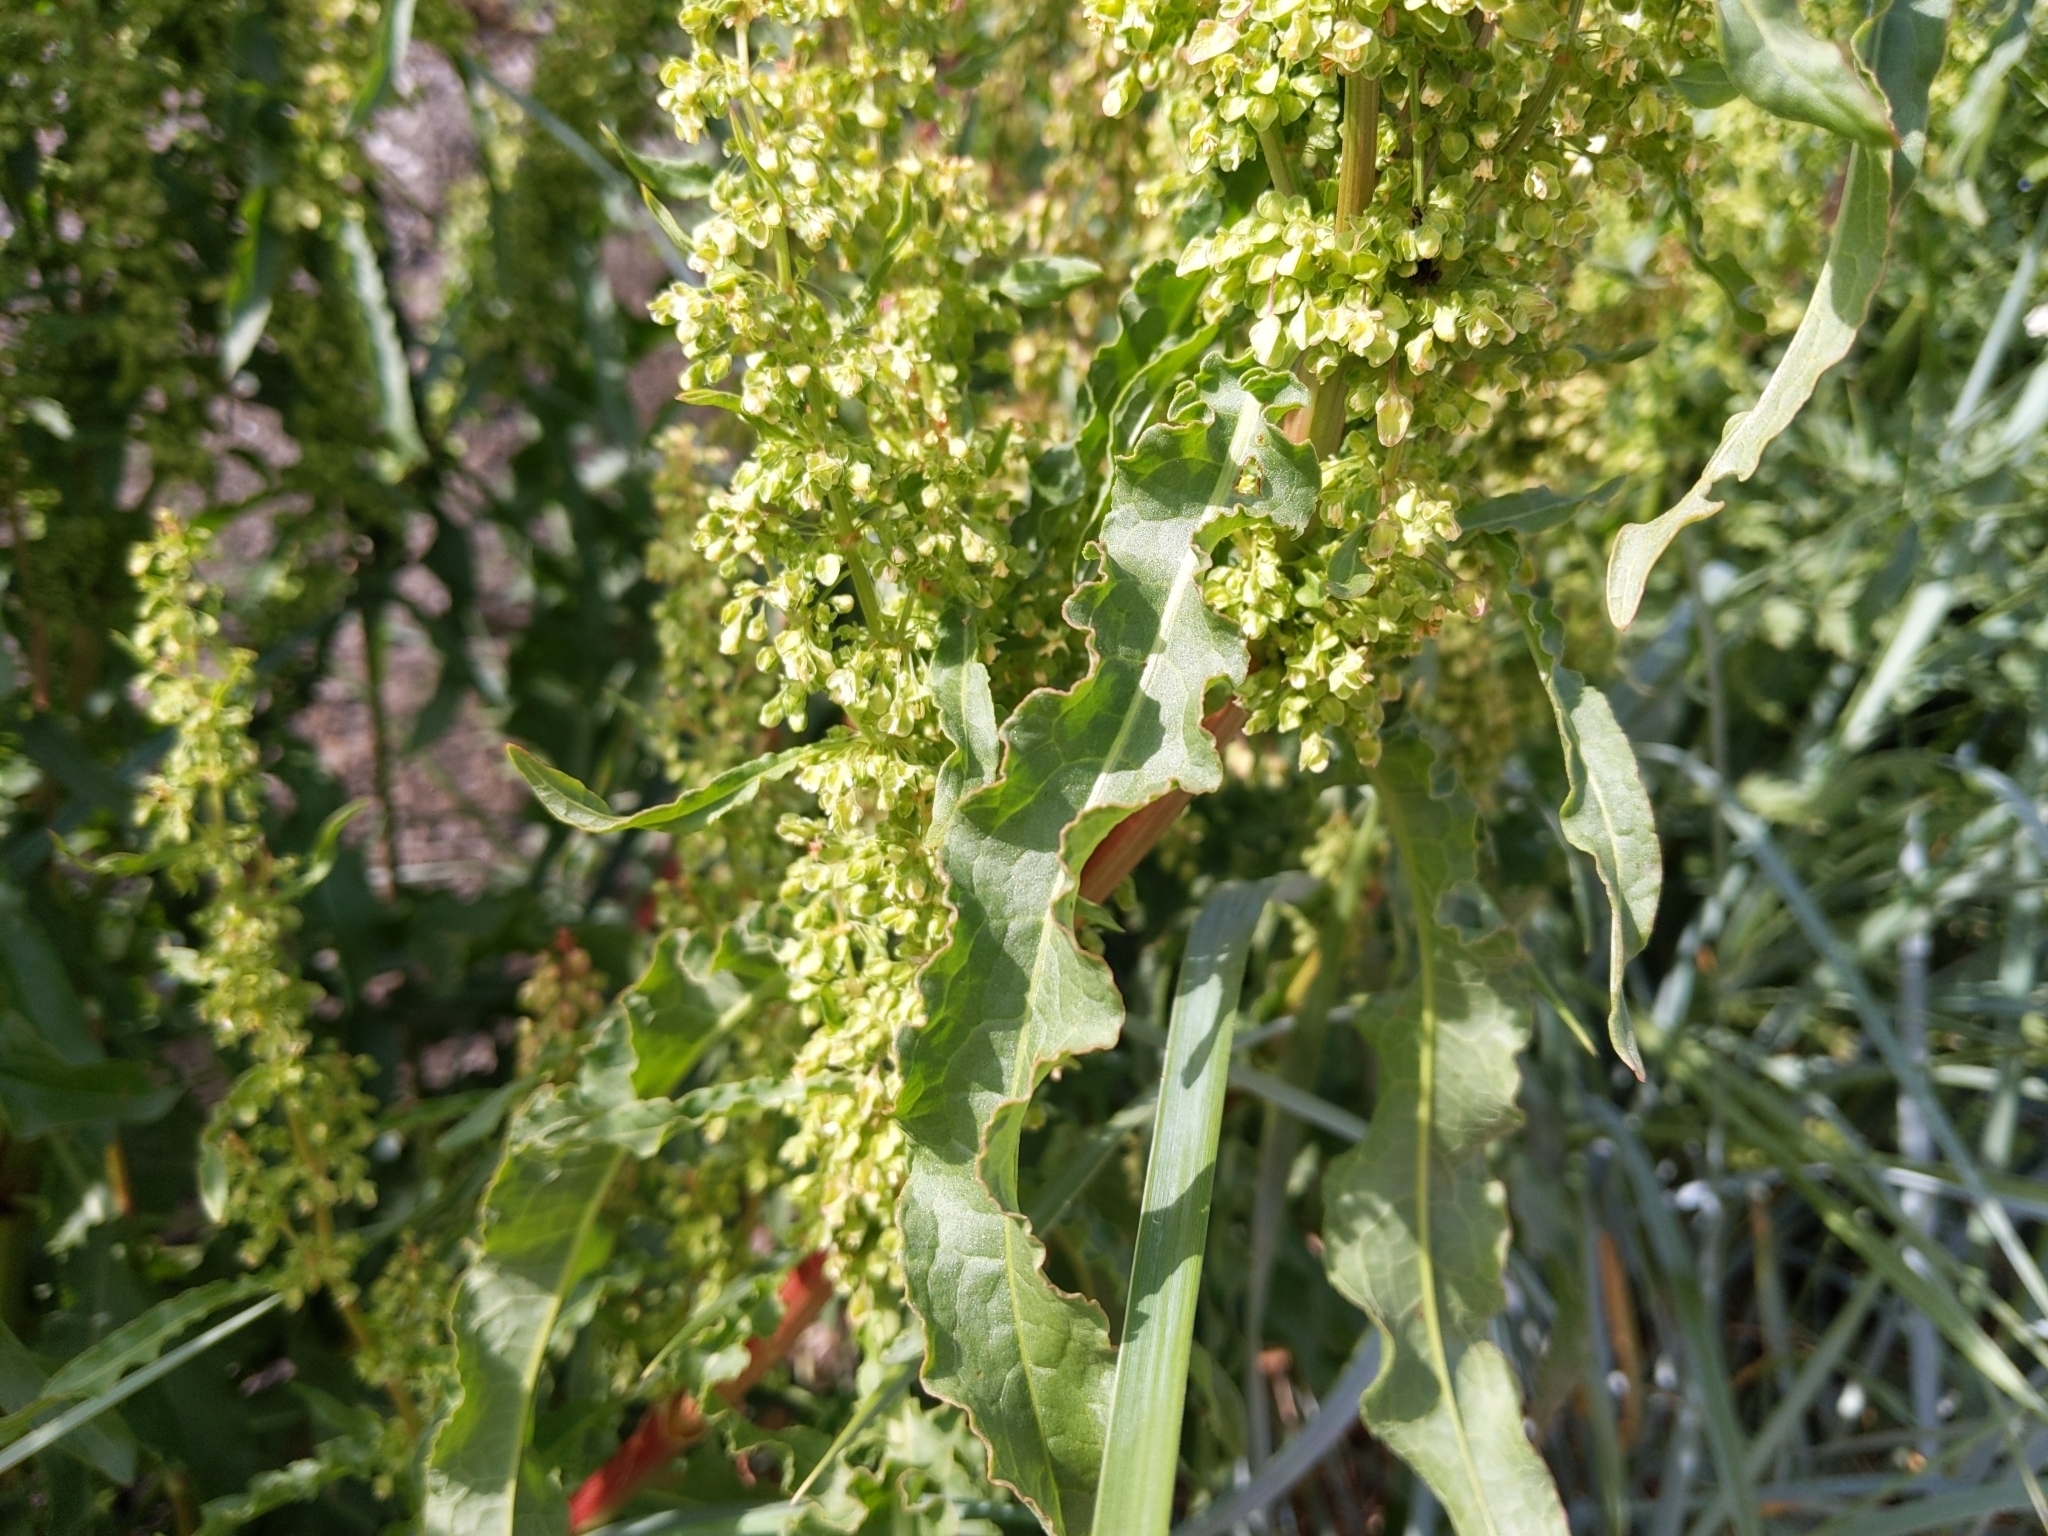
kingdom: Plantae
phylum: Tracheophyta
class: Magnoliopsida
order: Caryophyllales
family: Polygonaceae
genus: Rumex
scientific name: Rumex crispus
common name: Curled dock
